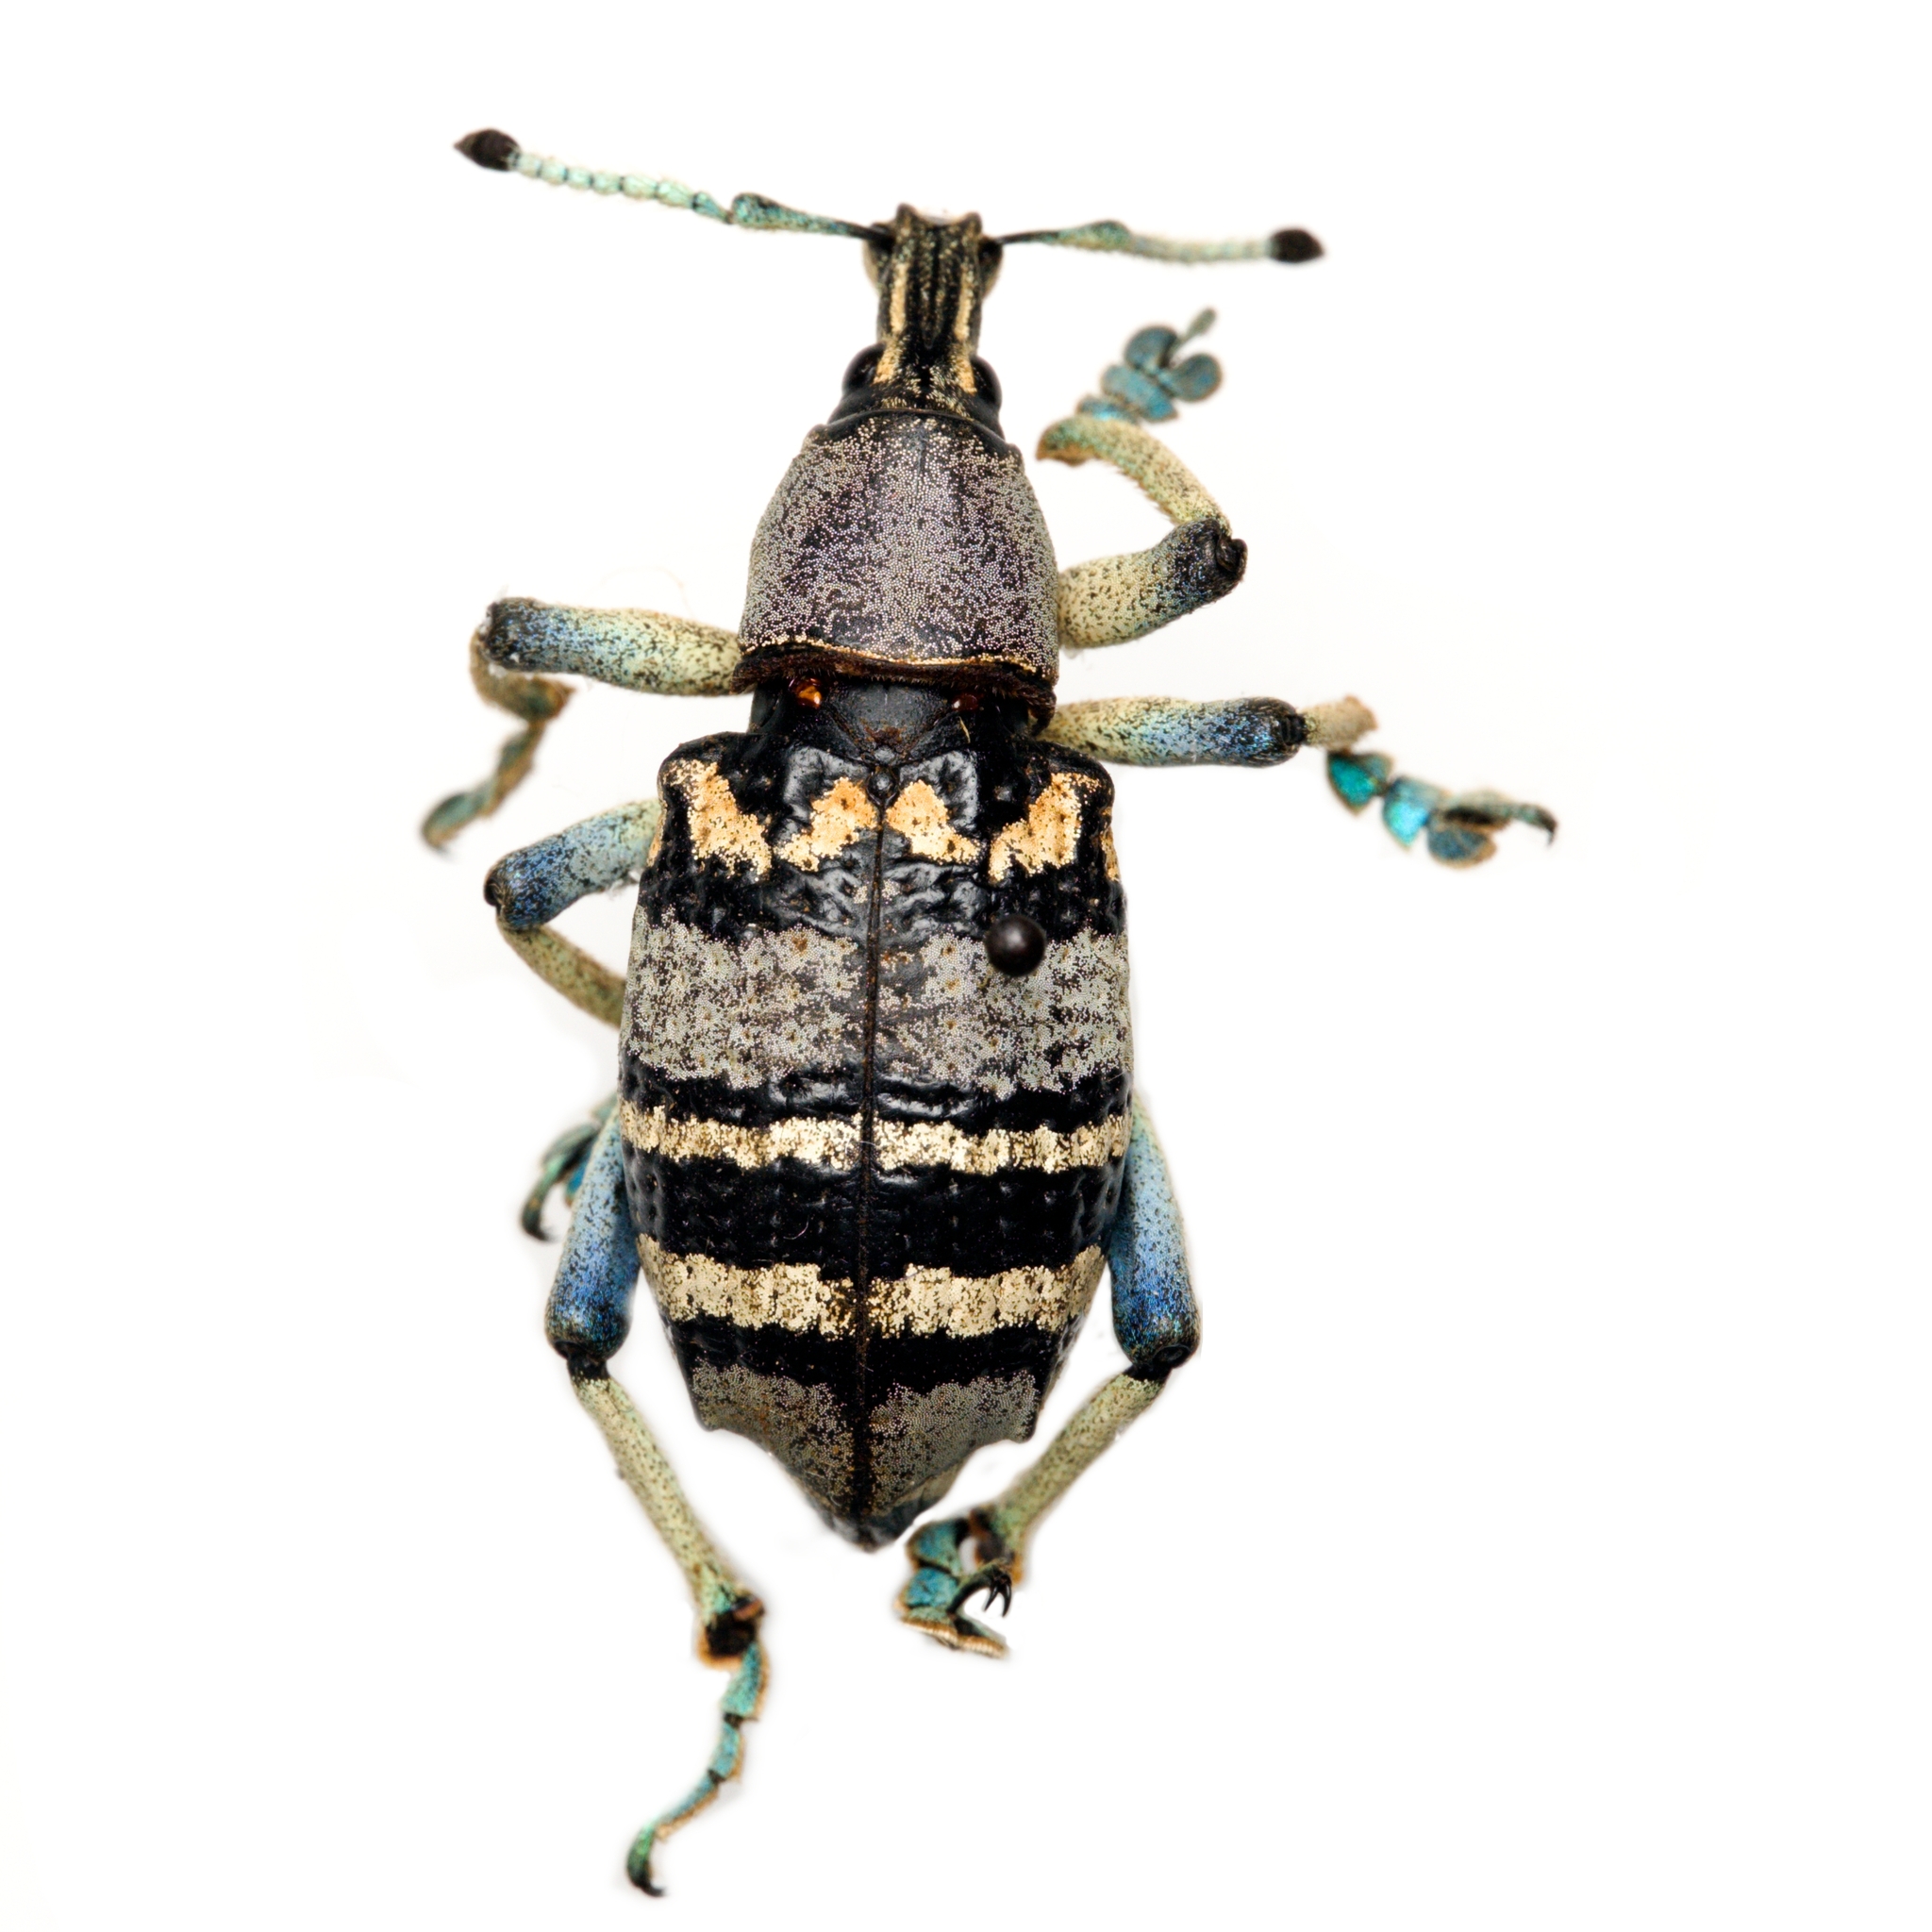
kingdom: Animalia
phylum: Arthropoda
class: Insecta
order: Coleoptera
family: Curculionidae
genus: Eupholus
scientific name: Eupholus nickerli
